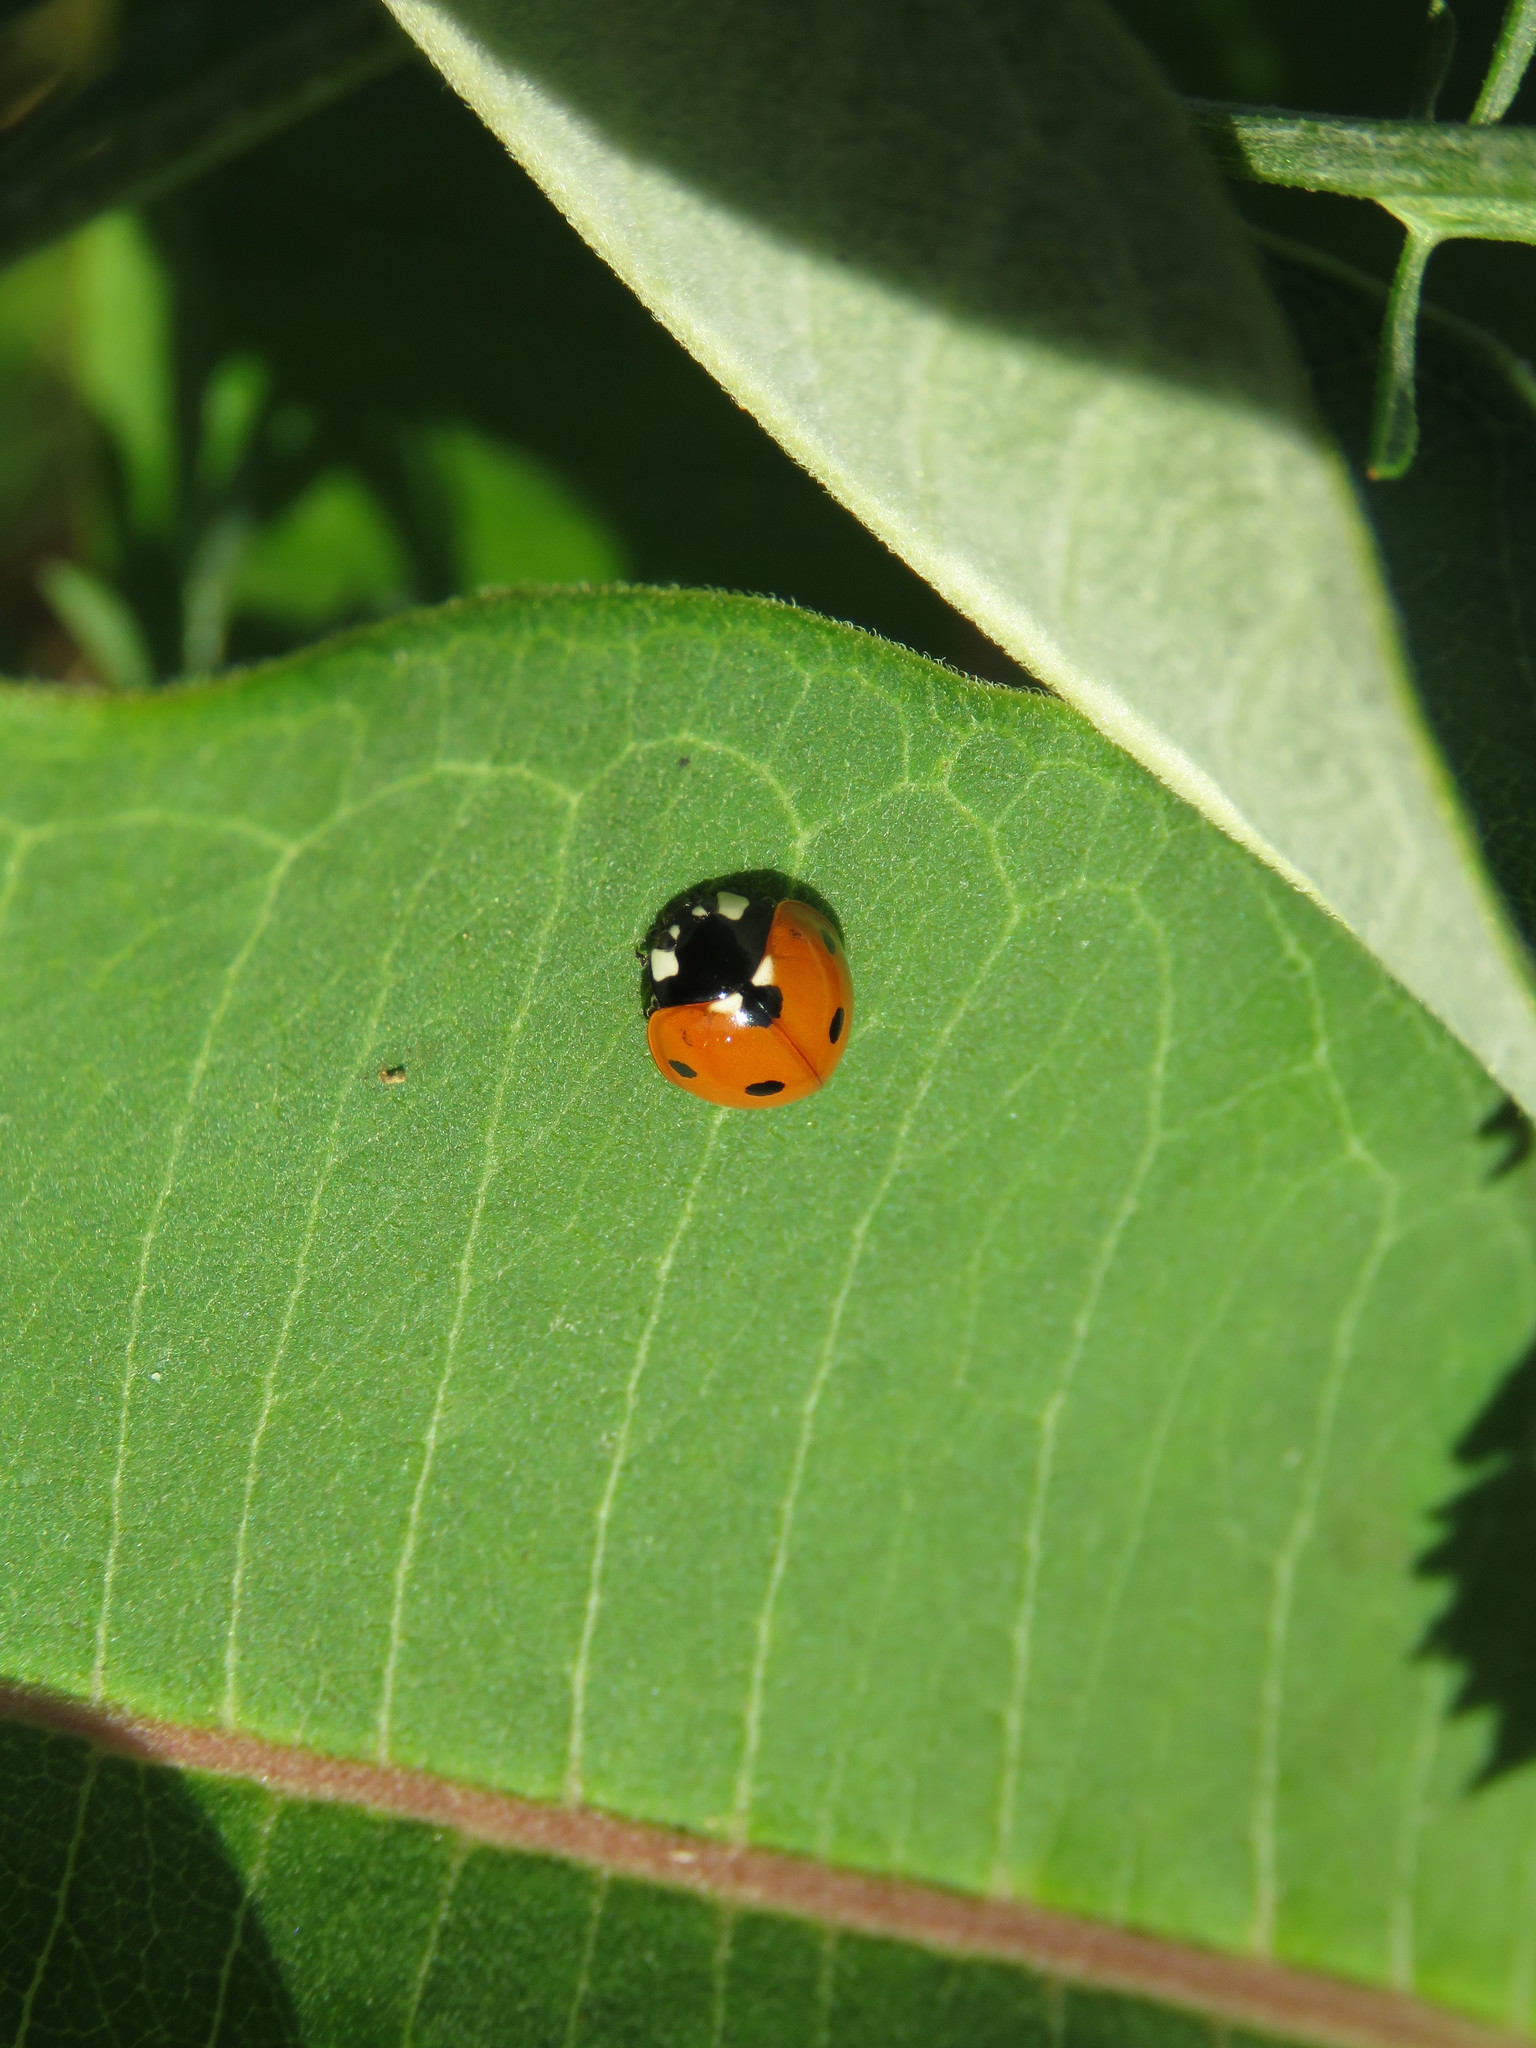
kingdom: Animalia
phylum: Arthropoda
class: Insecta
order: Coleoptera
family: Coccinellidae
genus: Coccinella
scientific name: Coccinella septempunctata
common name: Sevenspotted lady beetle
